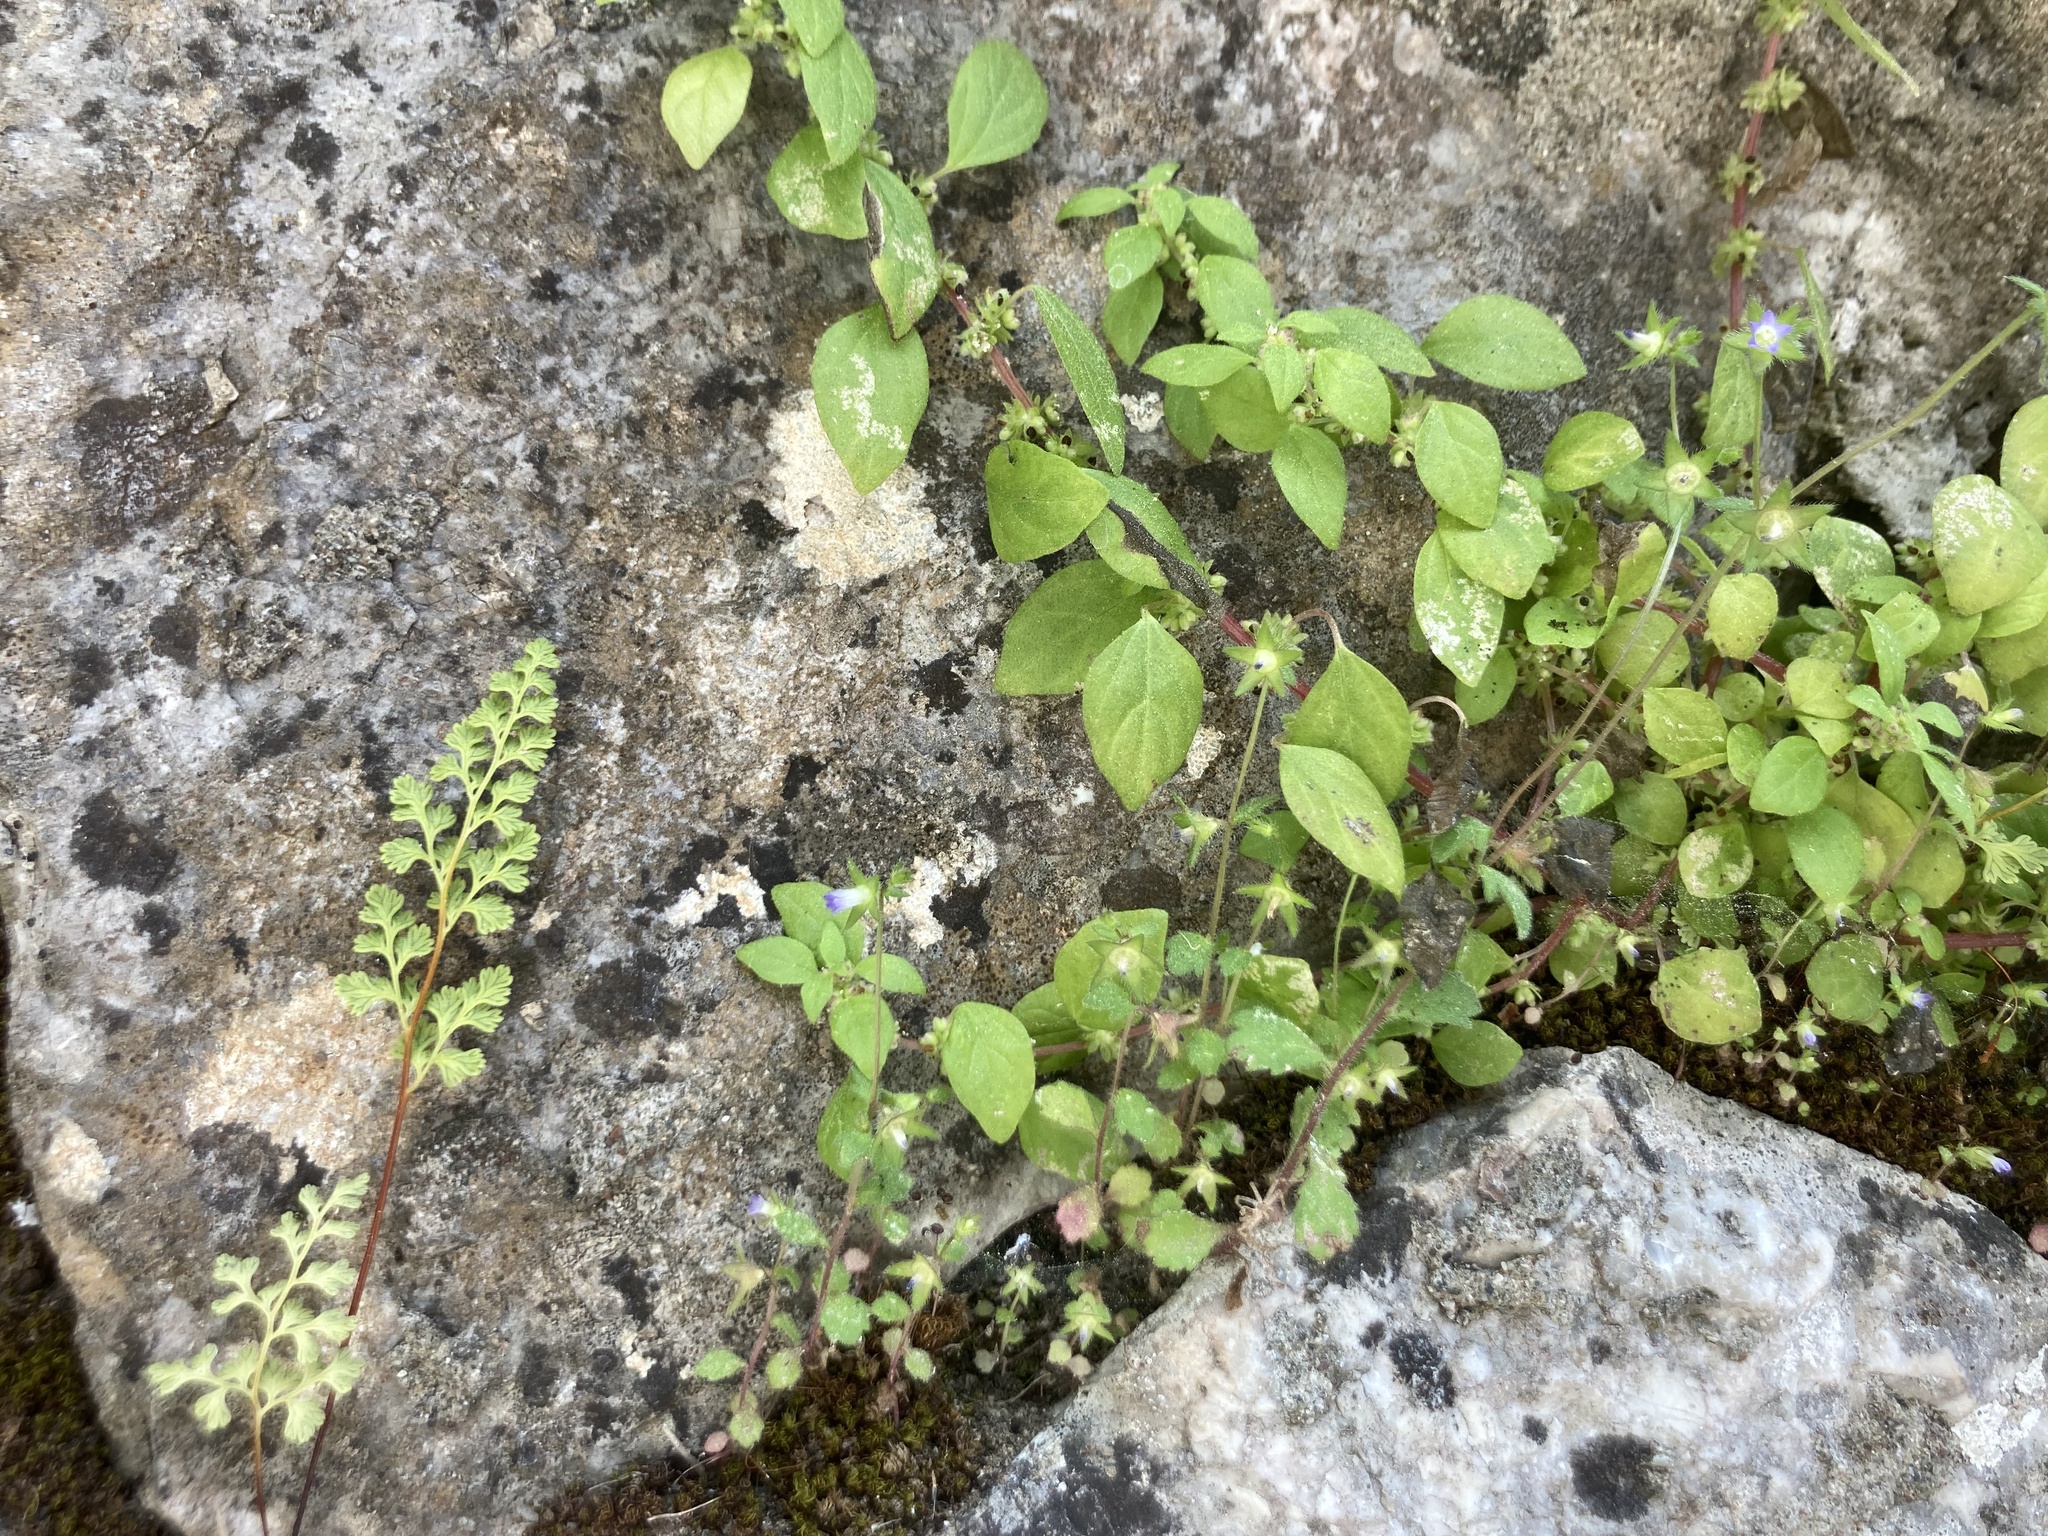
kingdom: Plantae
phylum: Tracheophyta
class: Polypodiopsida
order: Polypodiales
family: Pteridaceae
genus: Anogramma
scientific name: Anogramma leptophylla
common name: Jersey fern
